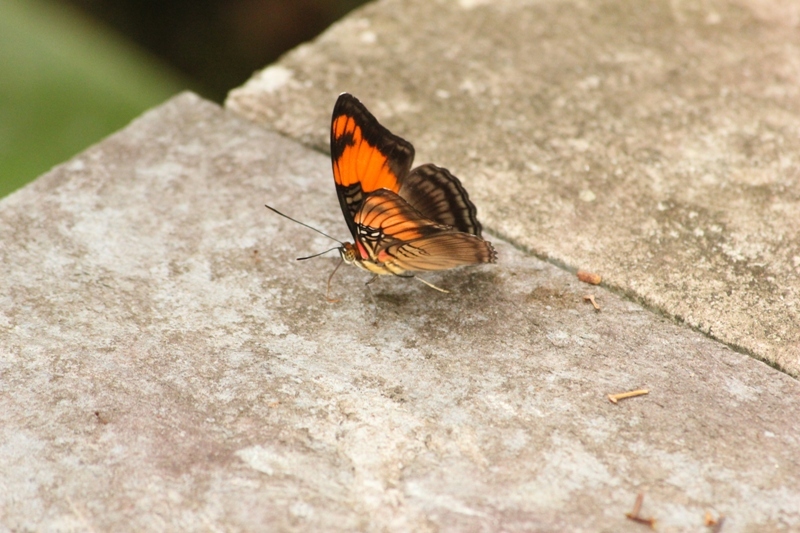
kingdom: Animalia
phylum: Arthropoda
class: Insecta
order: Lepidoptera
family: Nymphalidae
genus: Limenitis
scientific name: Limenitis mesentina
